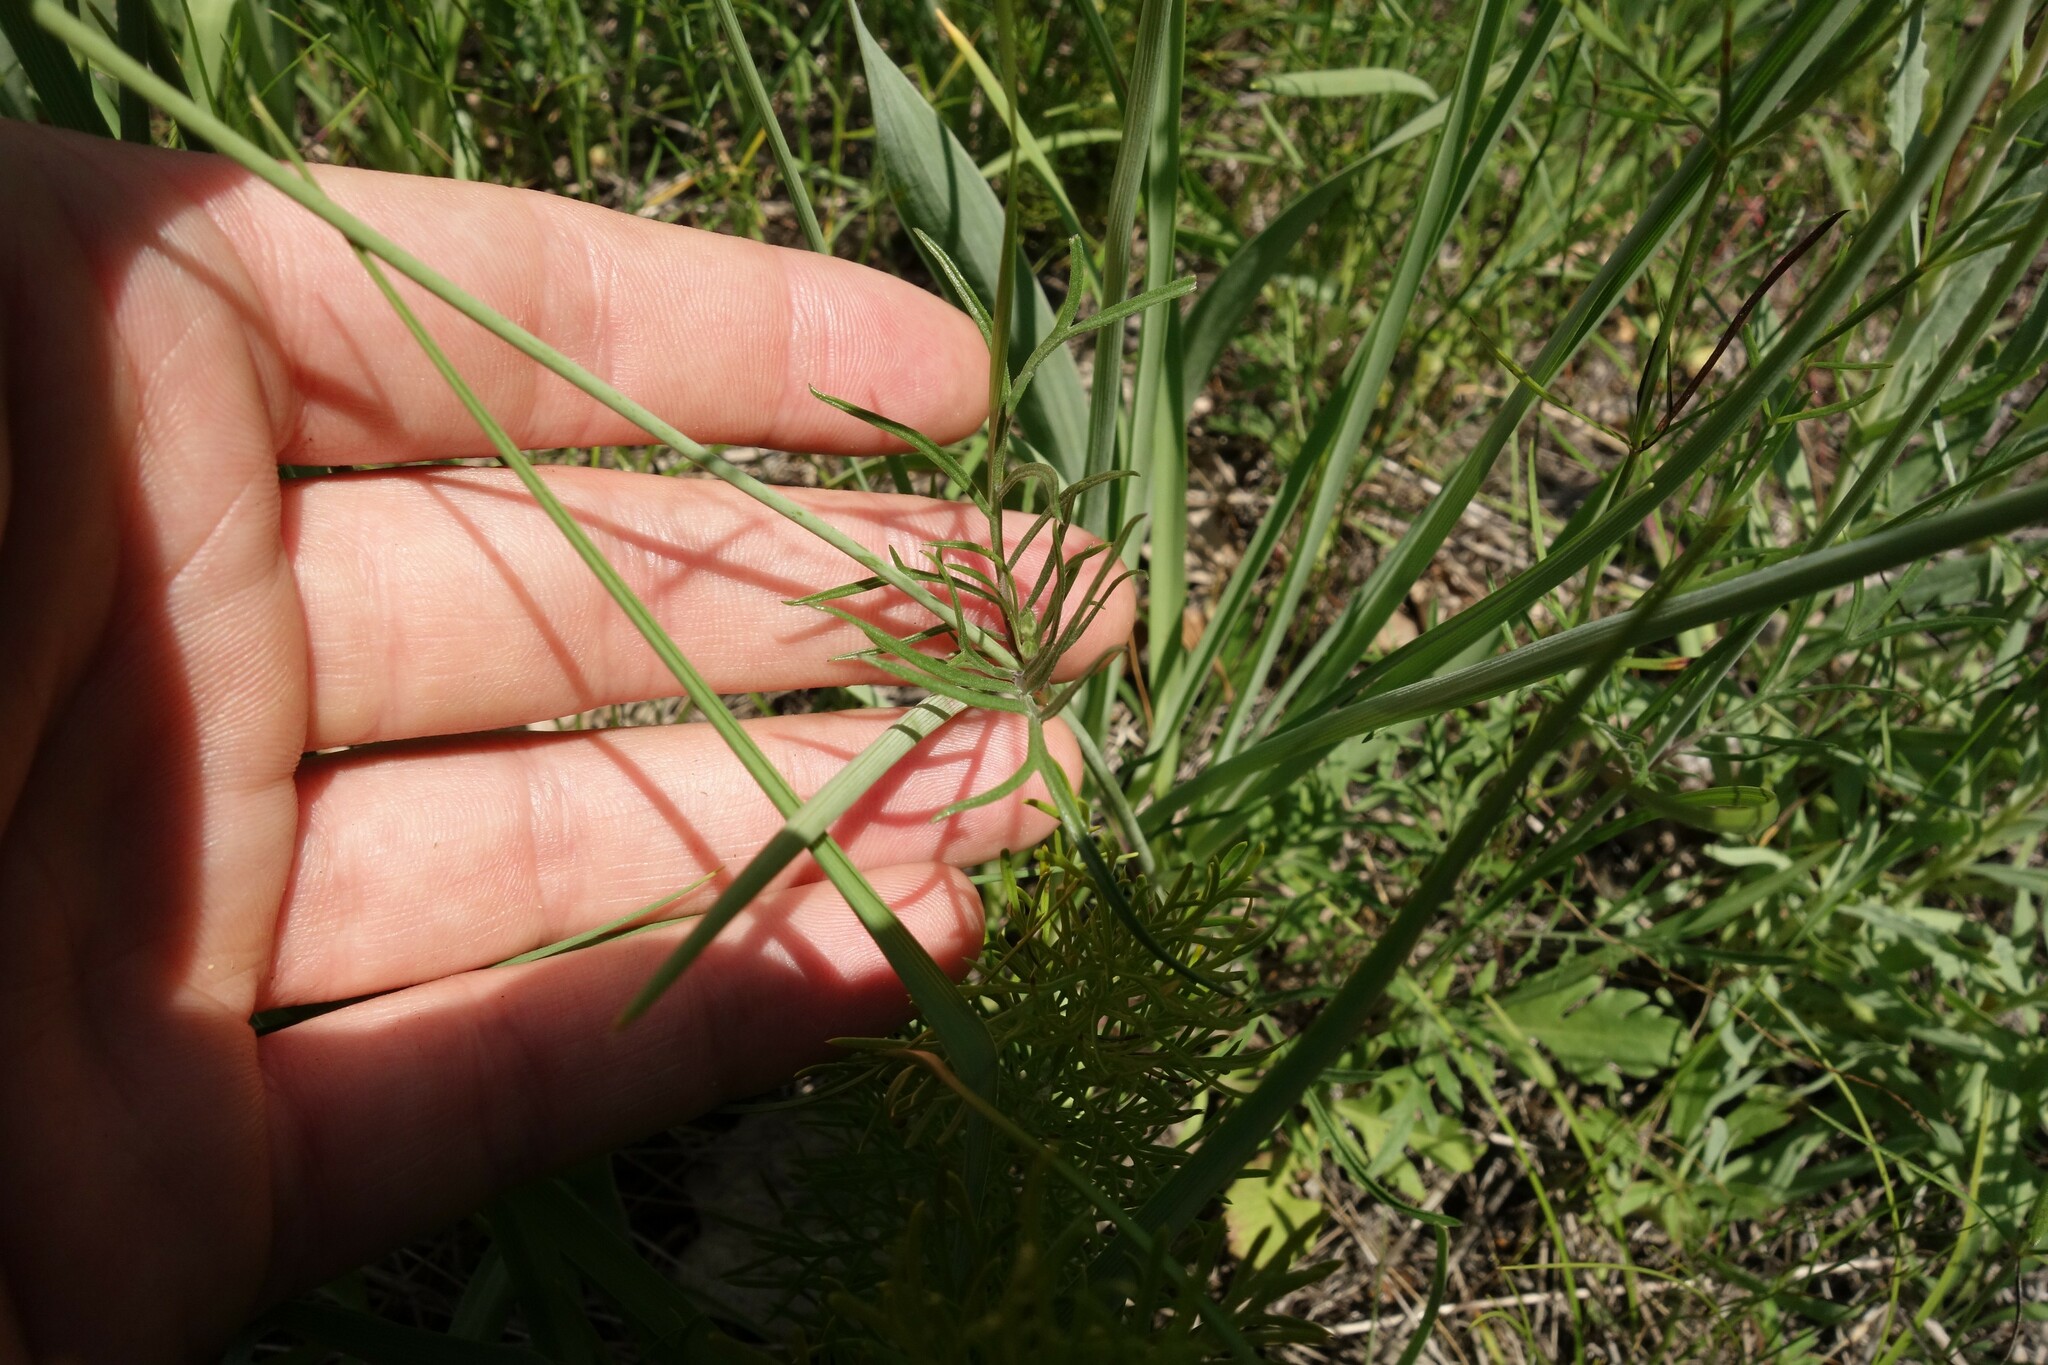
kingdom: Plantae
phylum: Tracheophyta
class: Magnoliopsida
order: Dipsacales
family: Caprifoliaceae
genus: Scabiosa
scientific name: Scabiosa ochroleuca
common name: Cream pincushions
